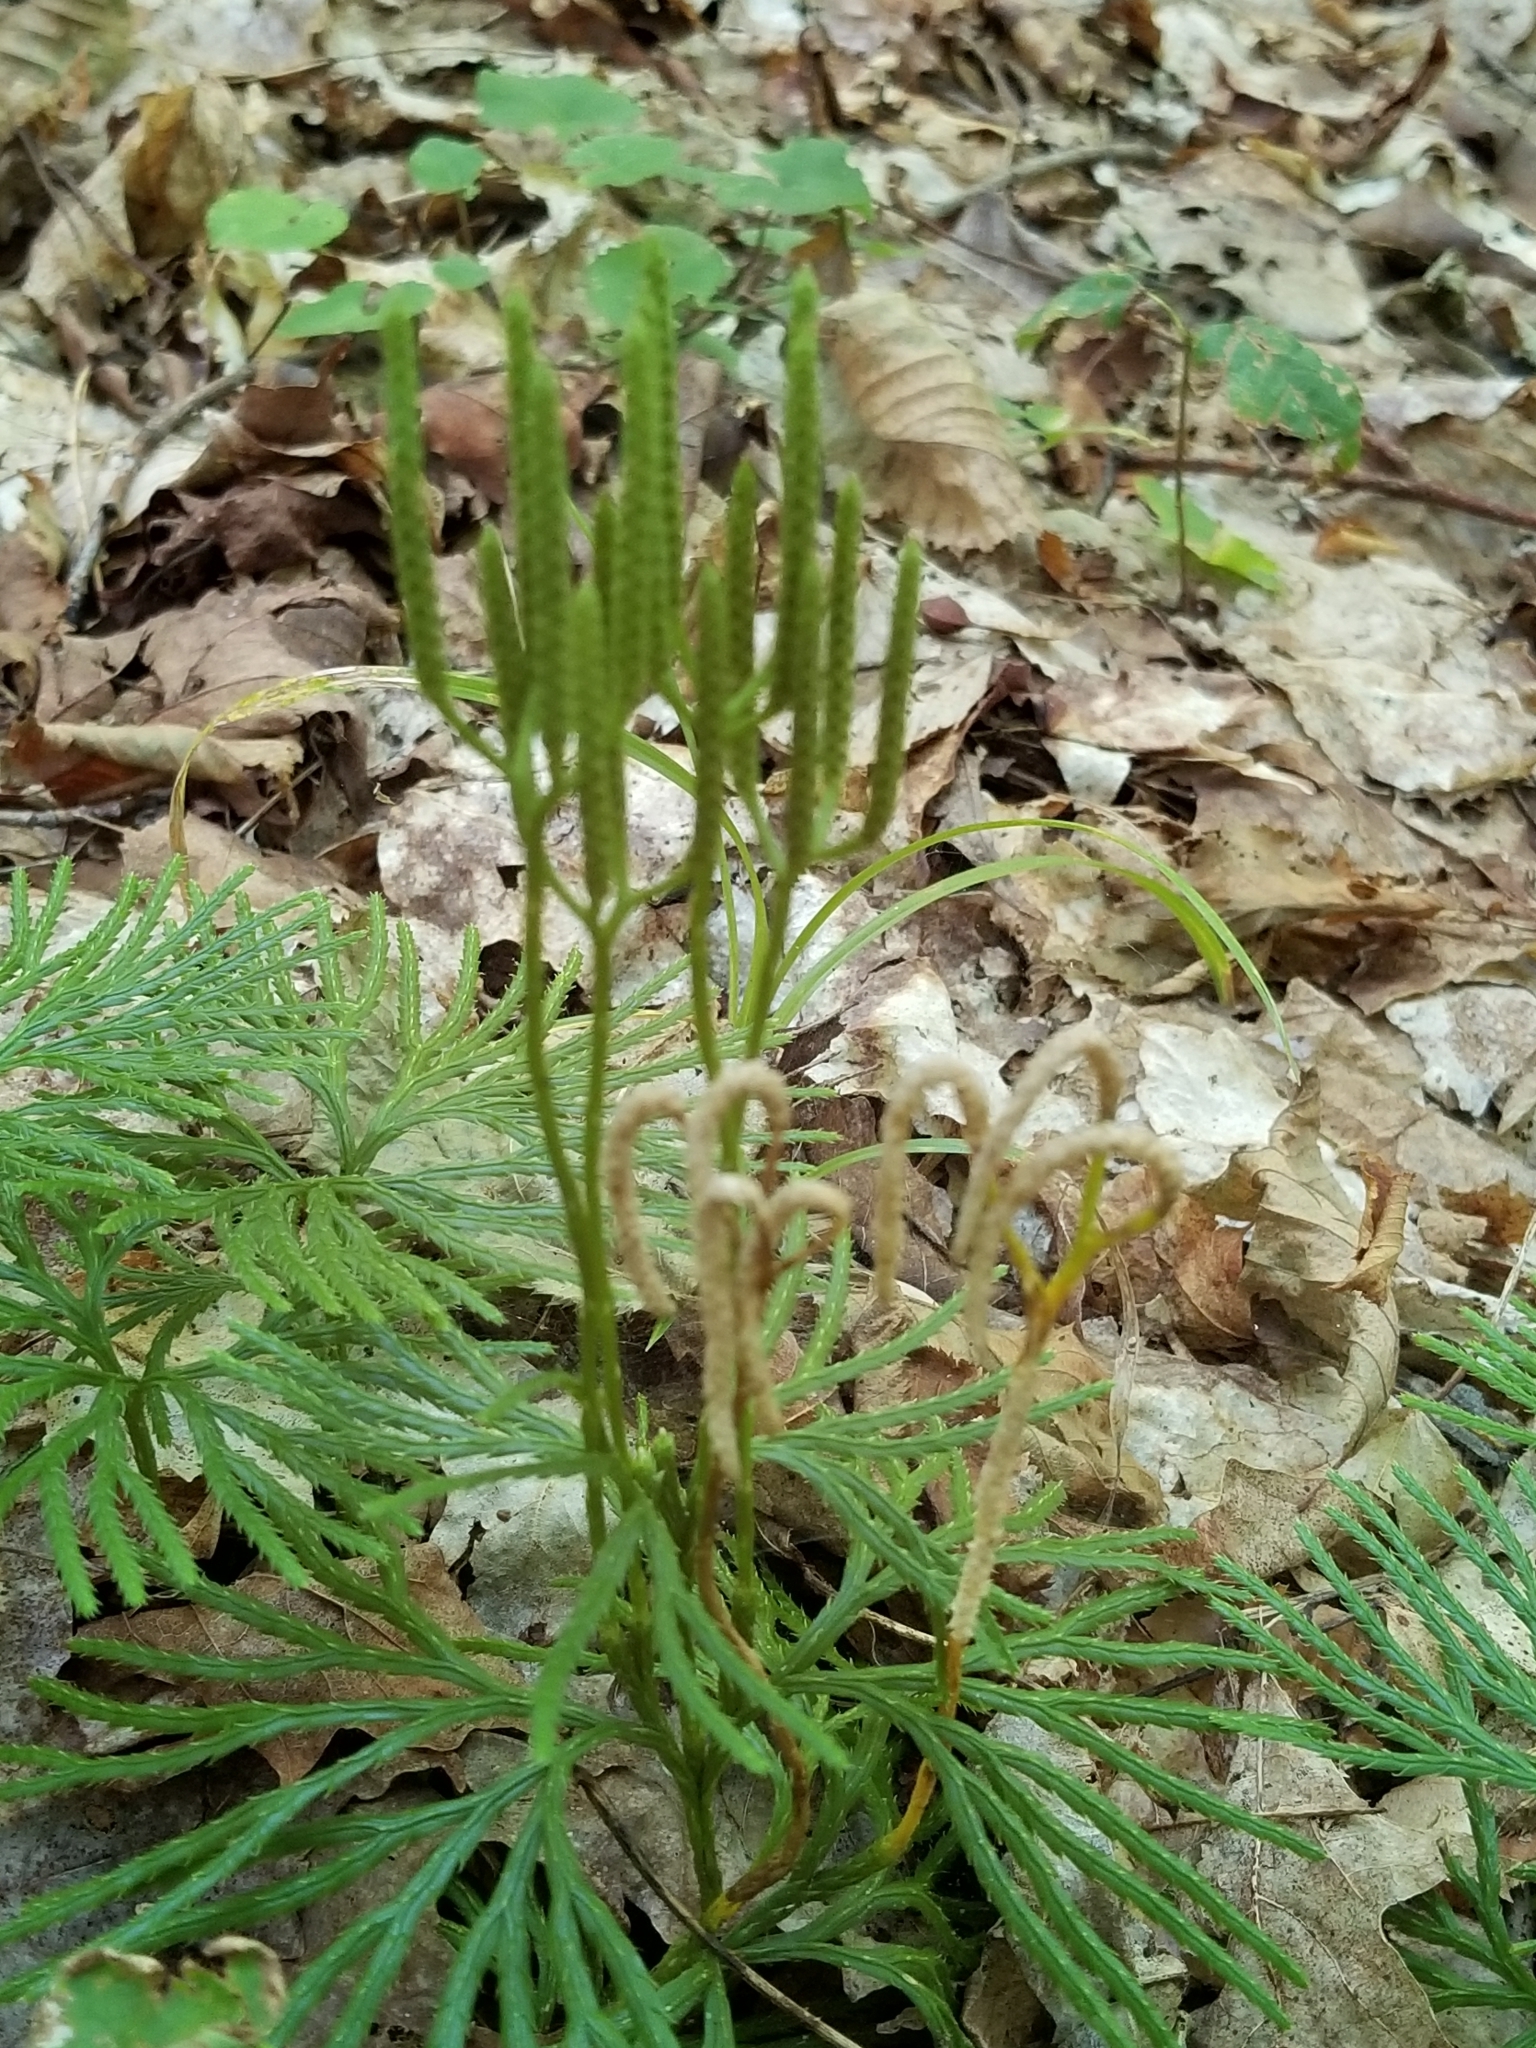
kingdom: Plantae
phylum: Tracheophyta
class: Lycopodiopsida
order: Lycopodiales
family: Lycopodiaceae
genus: Diphasiastrum
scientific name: Diphasiastrum digitatum
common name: Southern running-pine
